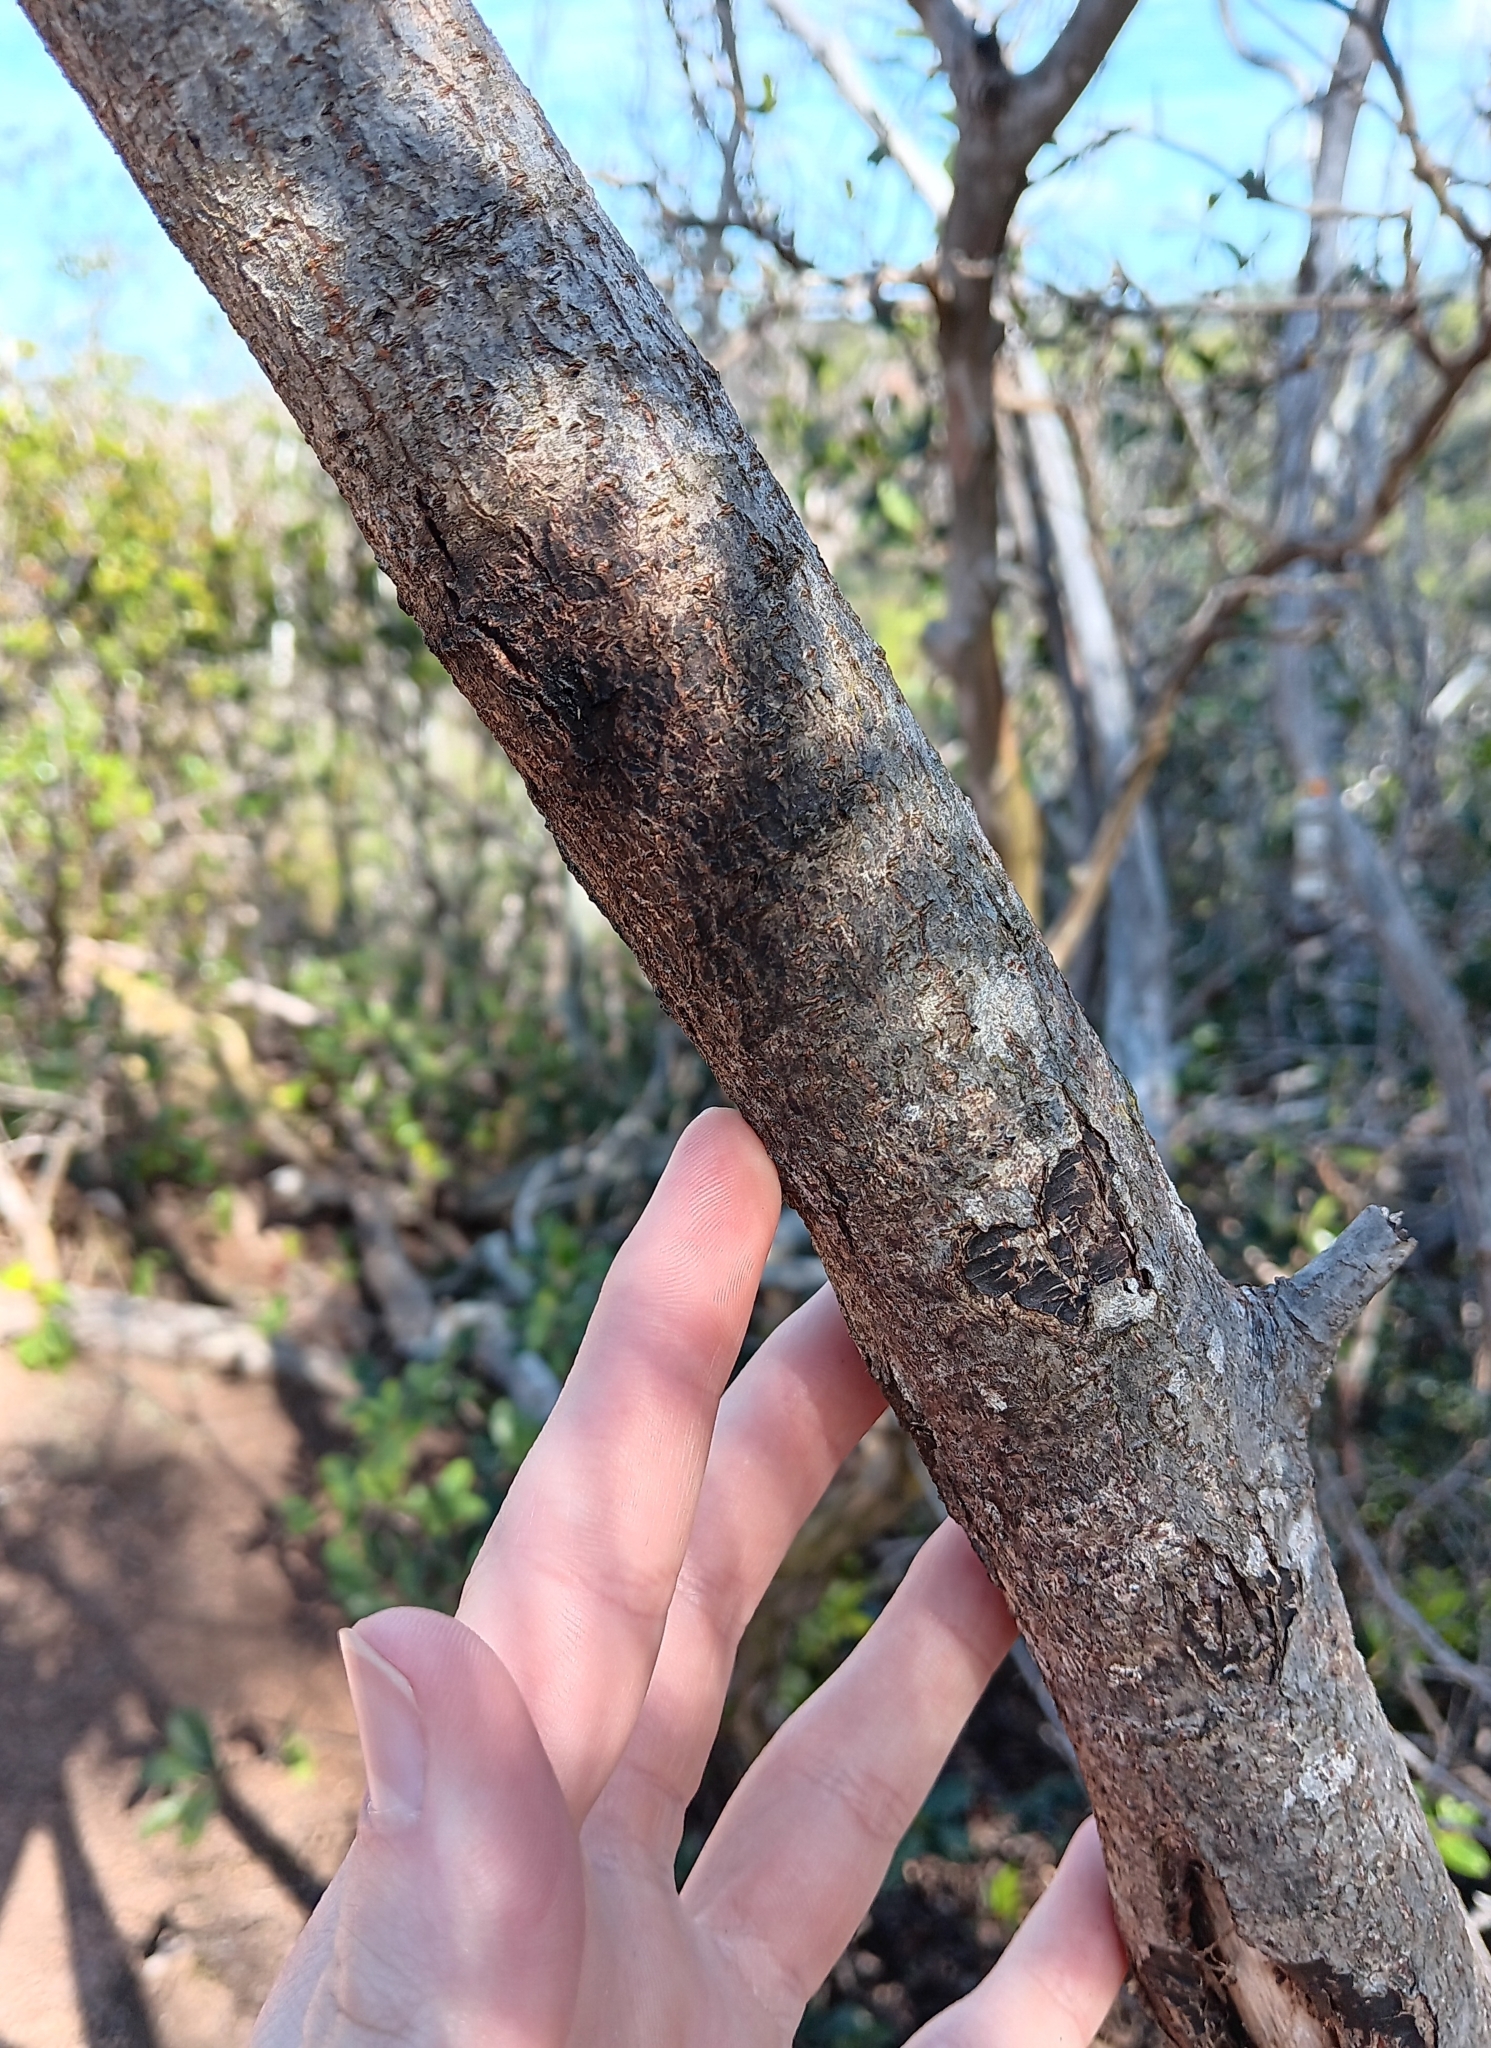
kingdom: Plantae
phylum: Tracheophyta
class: Magnoliopsida
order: Fabales
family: Fabaceae
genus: Acacia
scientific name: Acacia koa
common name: Gray koa
